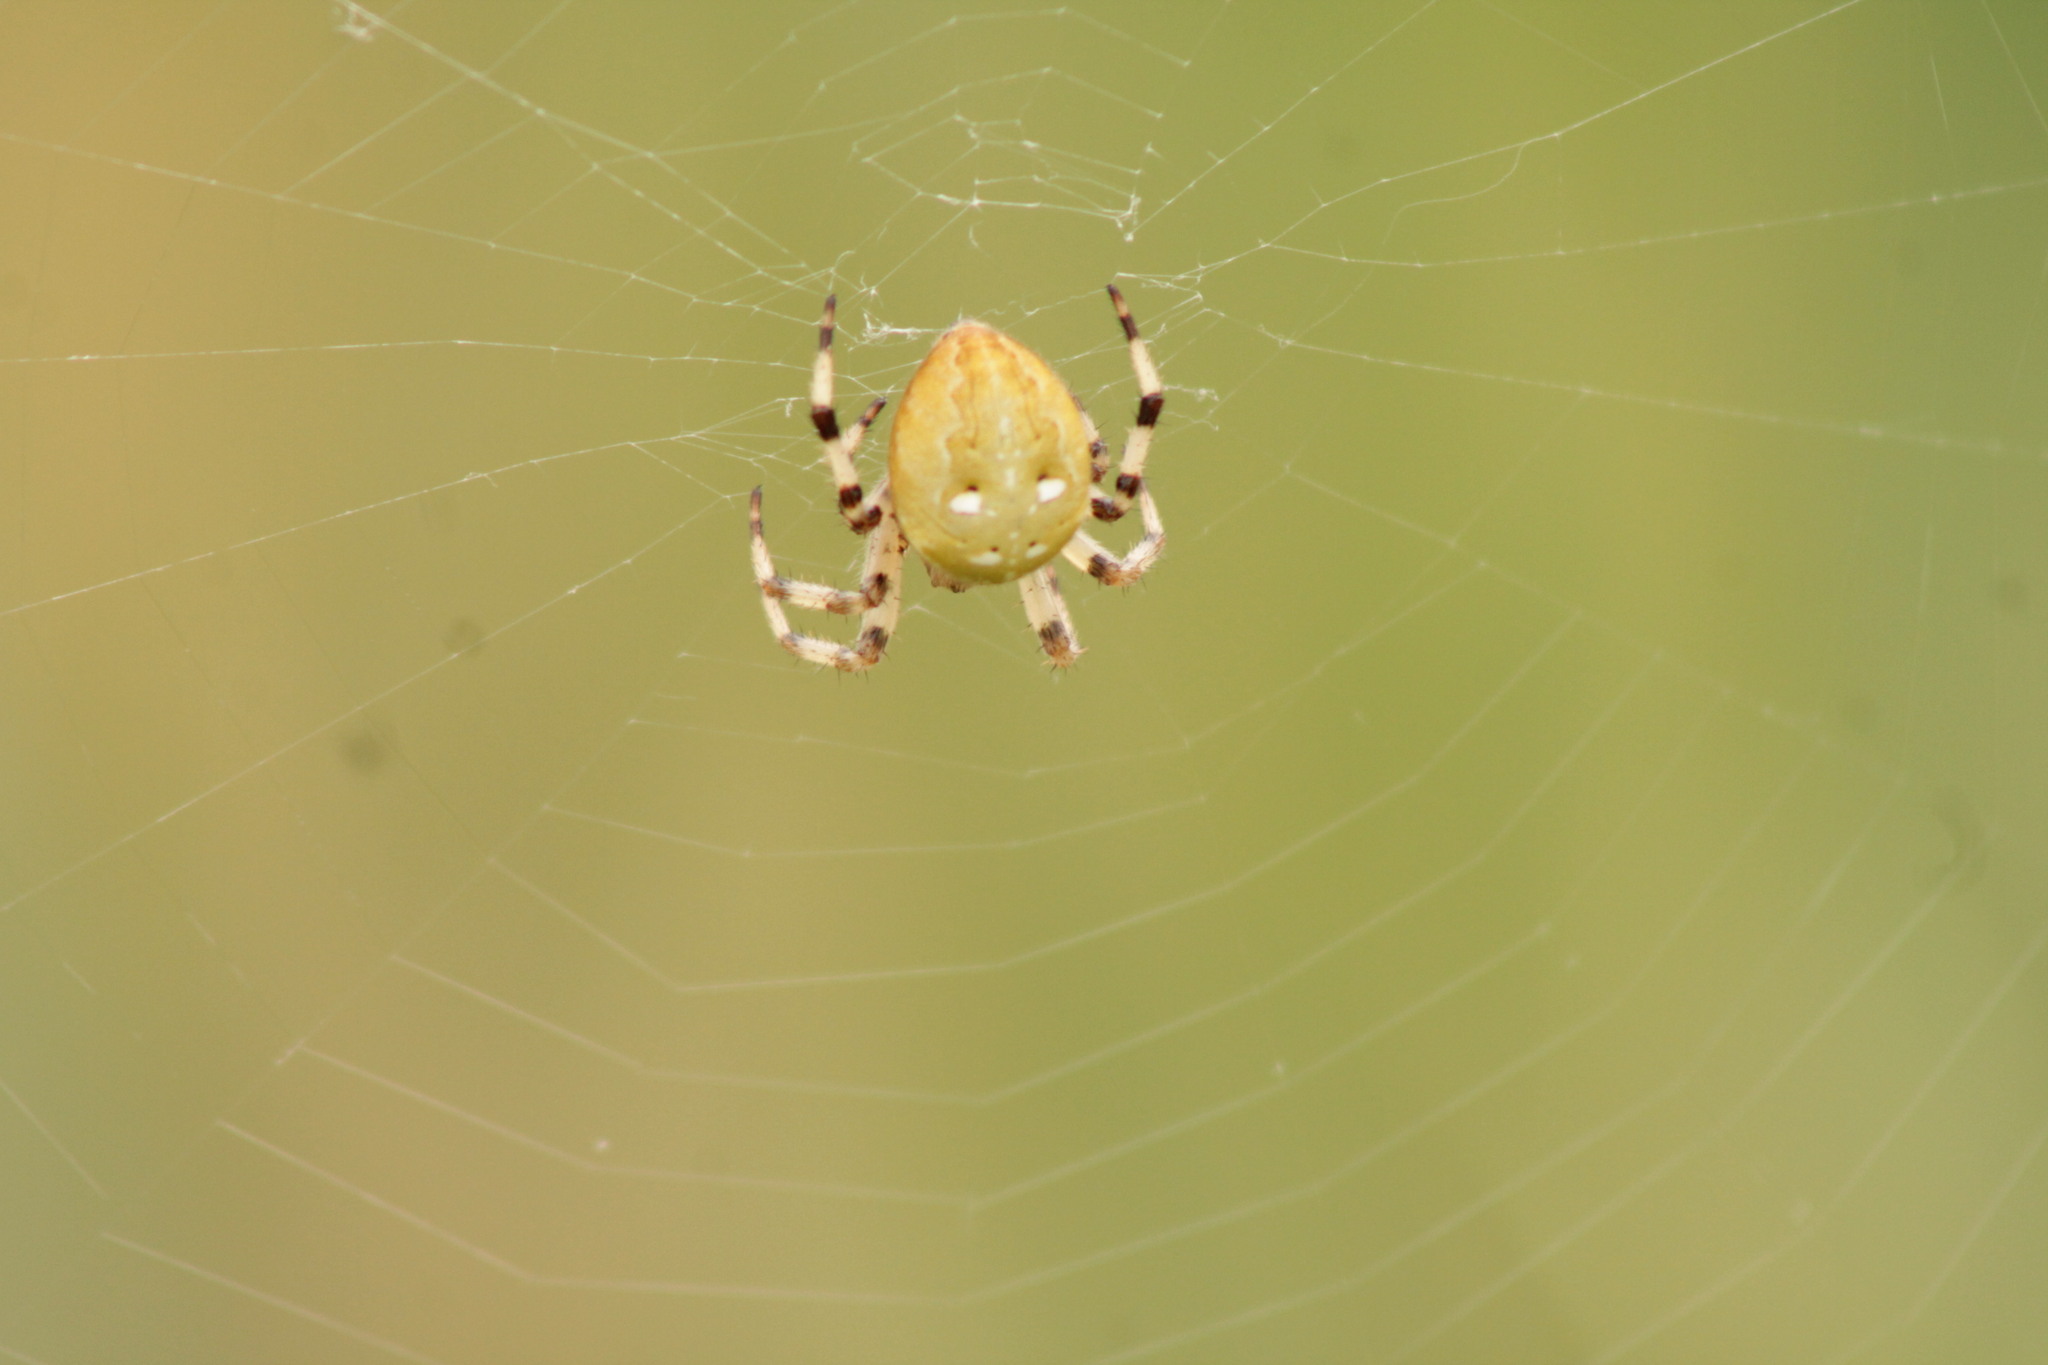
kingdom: Animalia
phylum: Arthropoda
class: Arachnida
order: Araneae
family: Araneidae
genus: Araneus
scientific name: Araneus quadratus
